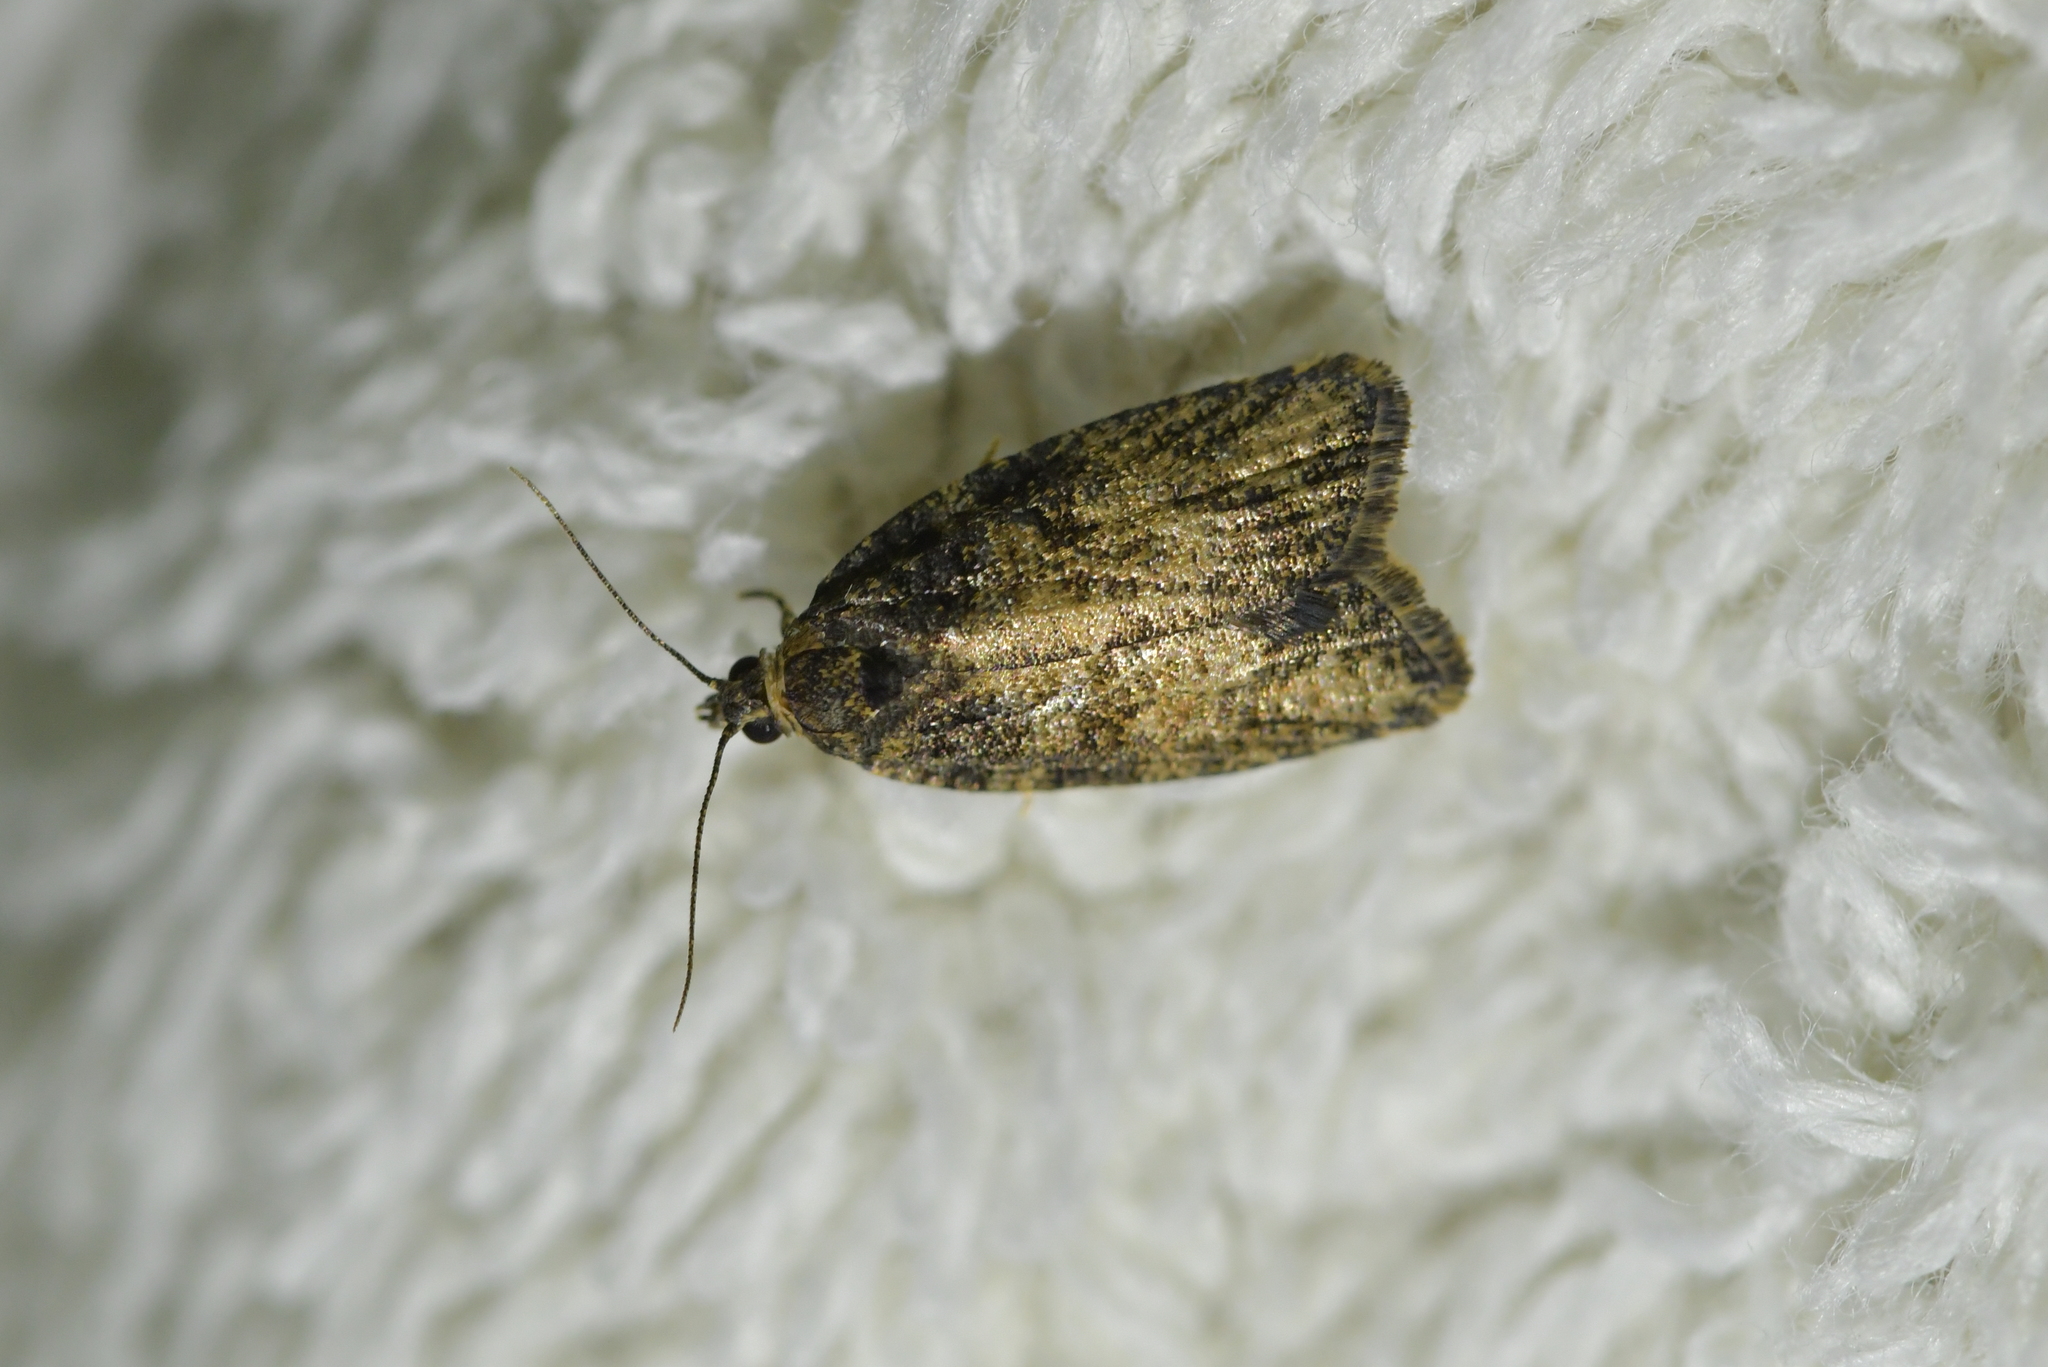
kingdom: Animalia
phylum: Arthropoda
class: Insecta
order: Lepidoptera
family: Tortricidae
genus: Capua
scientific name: Capua intractana
